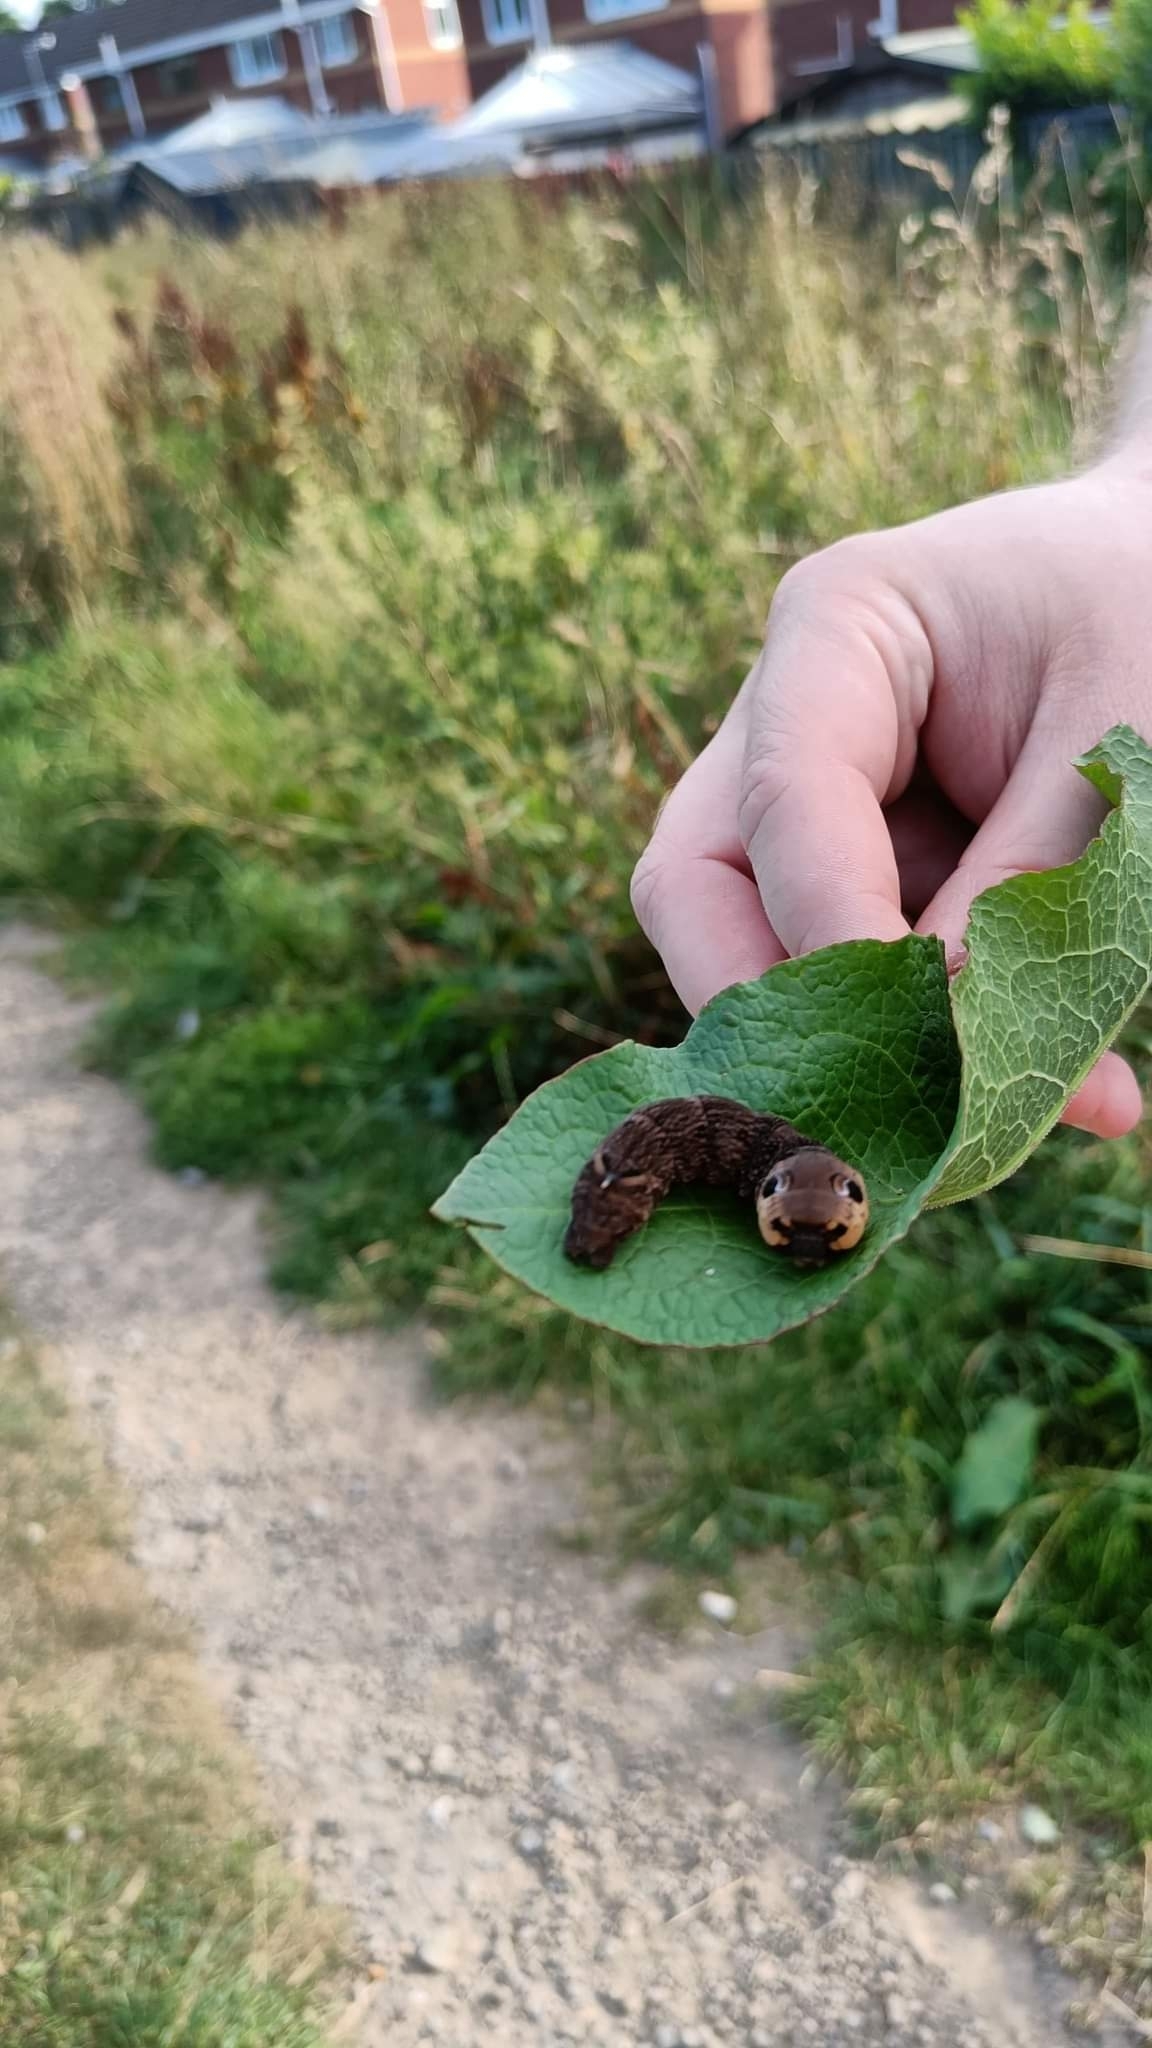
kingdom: Animalia
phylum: Arthropoda
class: Insecta
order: Lepidoptera
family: Sphingidae
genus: Deilephila
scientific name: Deilephila elpenor
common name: Elephant hawk-moth
